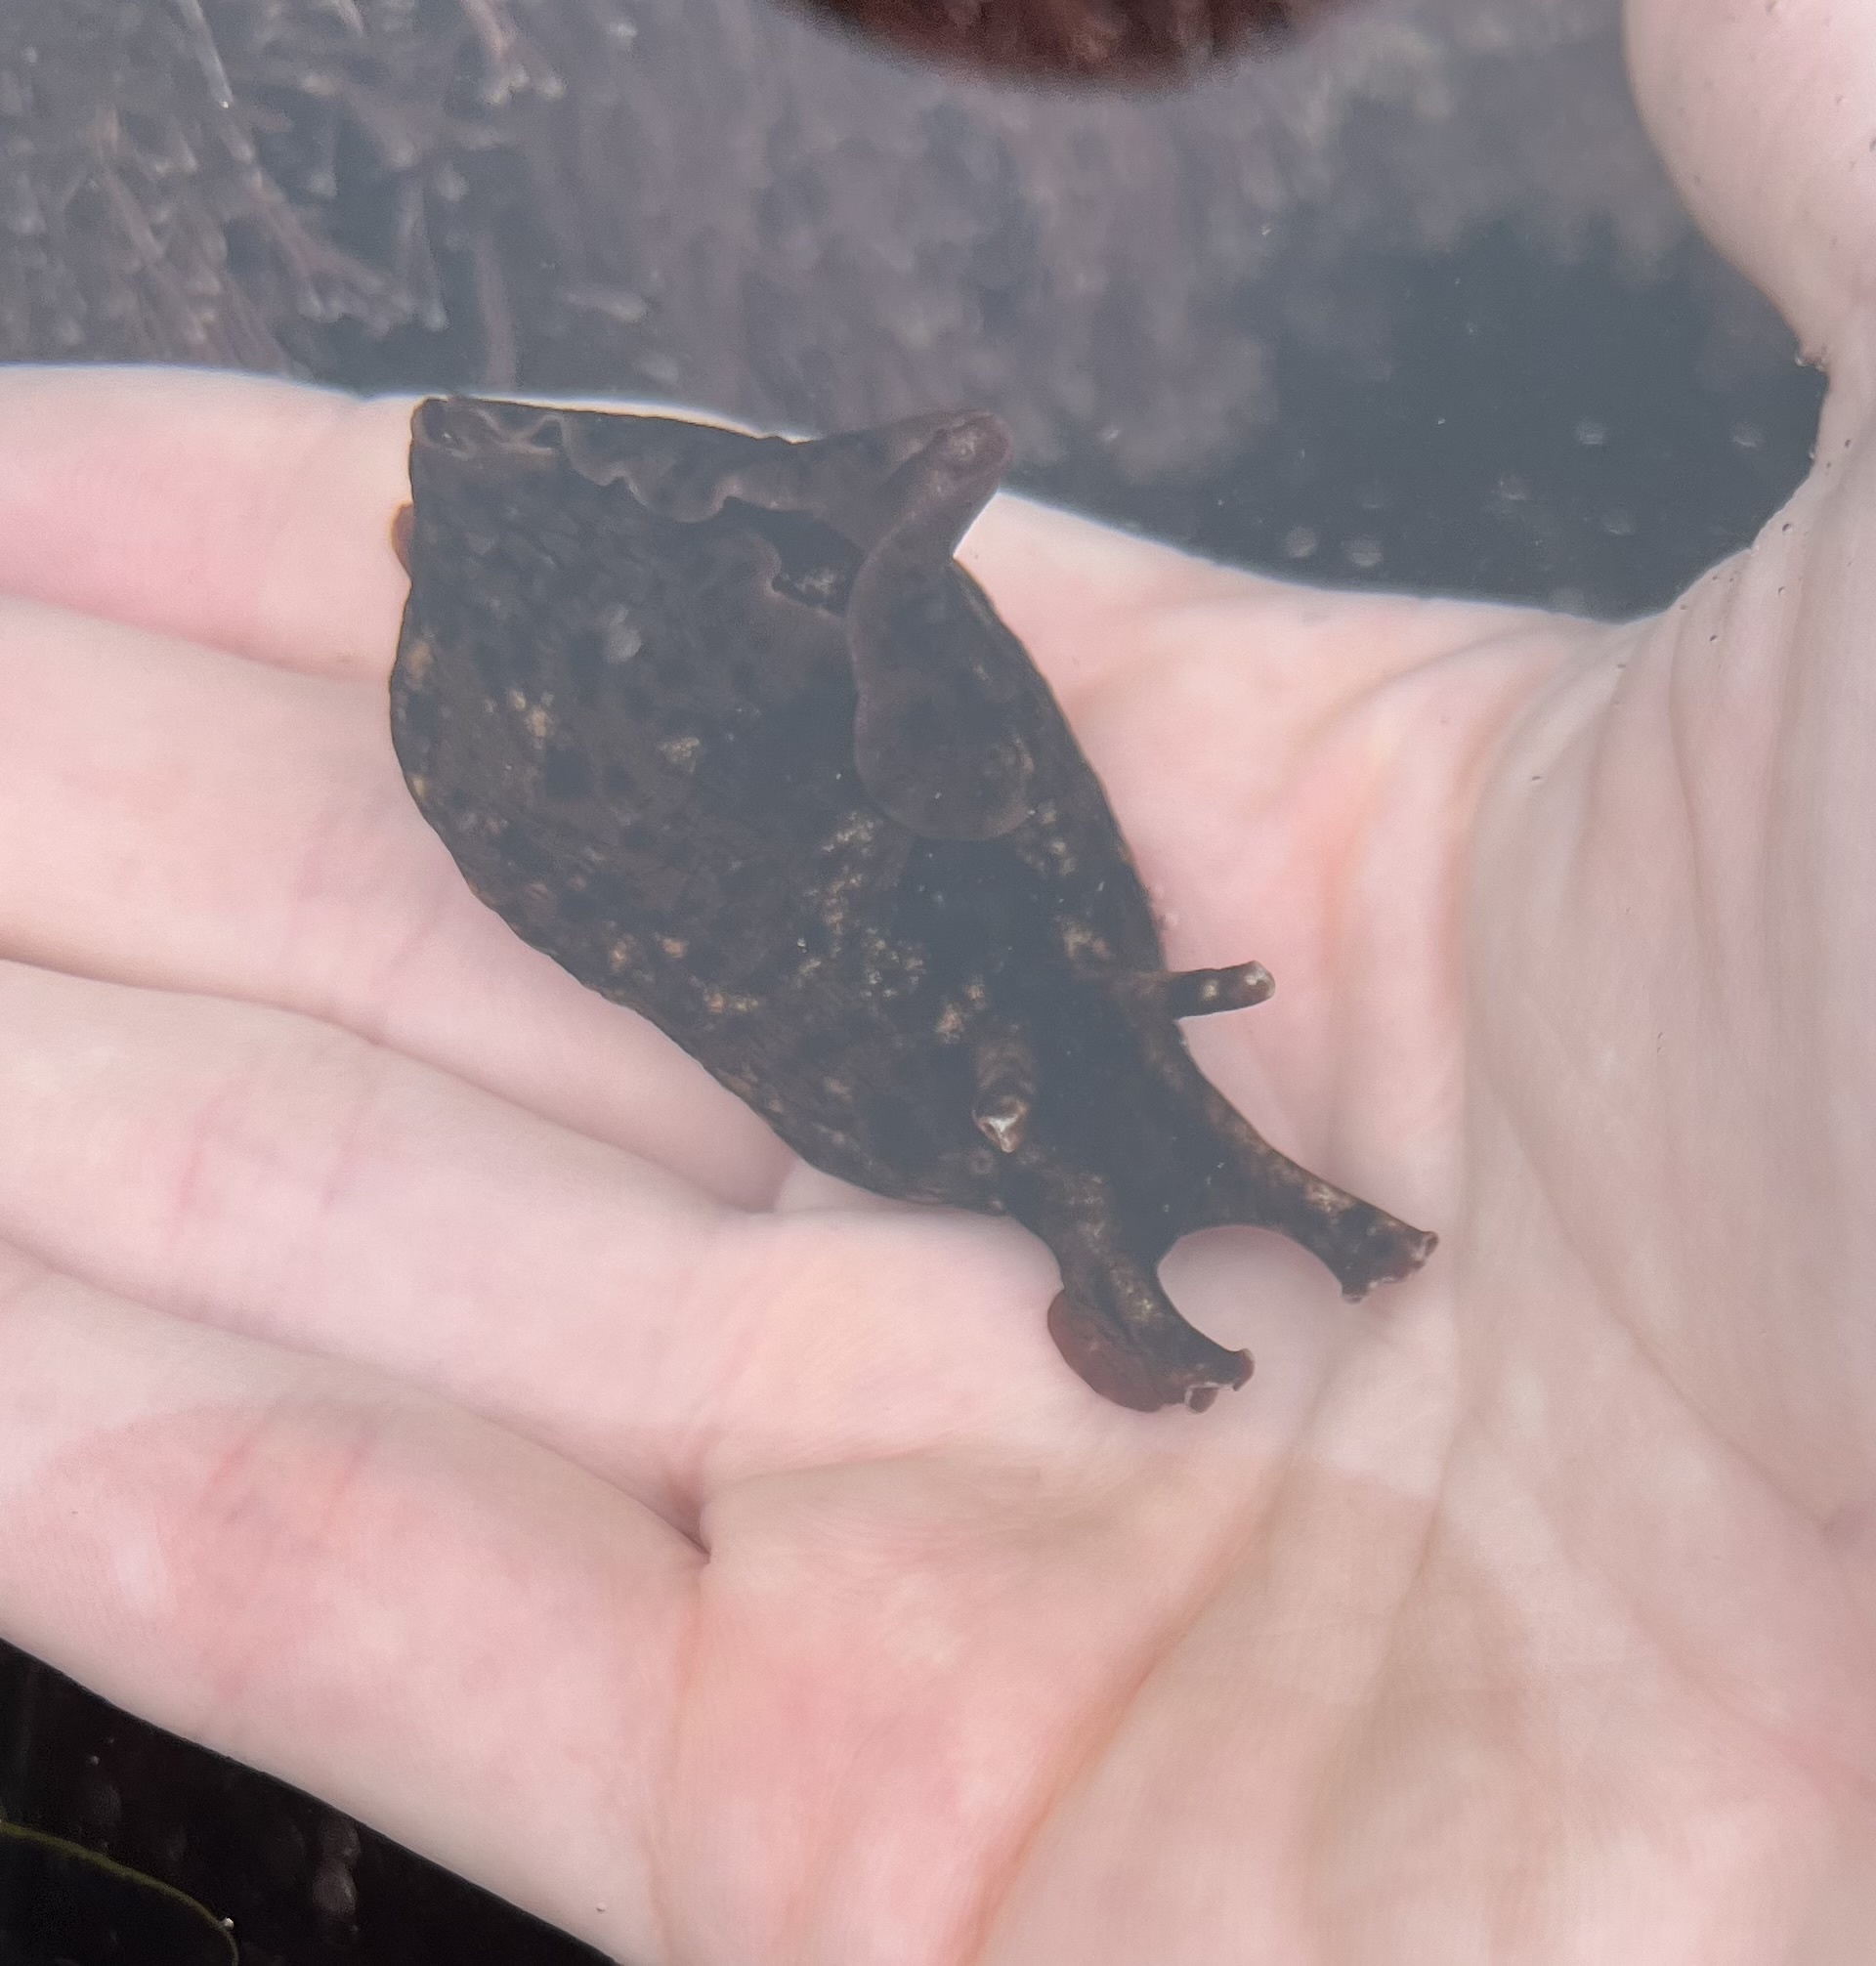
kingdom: Animalia
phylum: Mollusca
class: Gastropoda
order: Aplysiida
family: Aplysiidae
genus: Aplysia
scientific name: Aplysia californica
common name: California seahare
